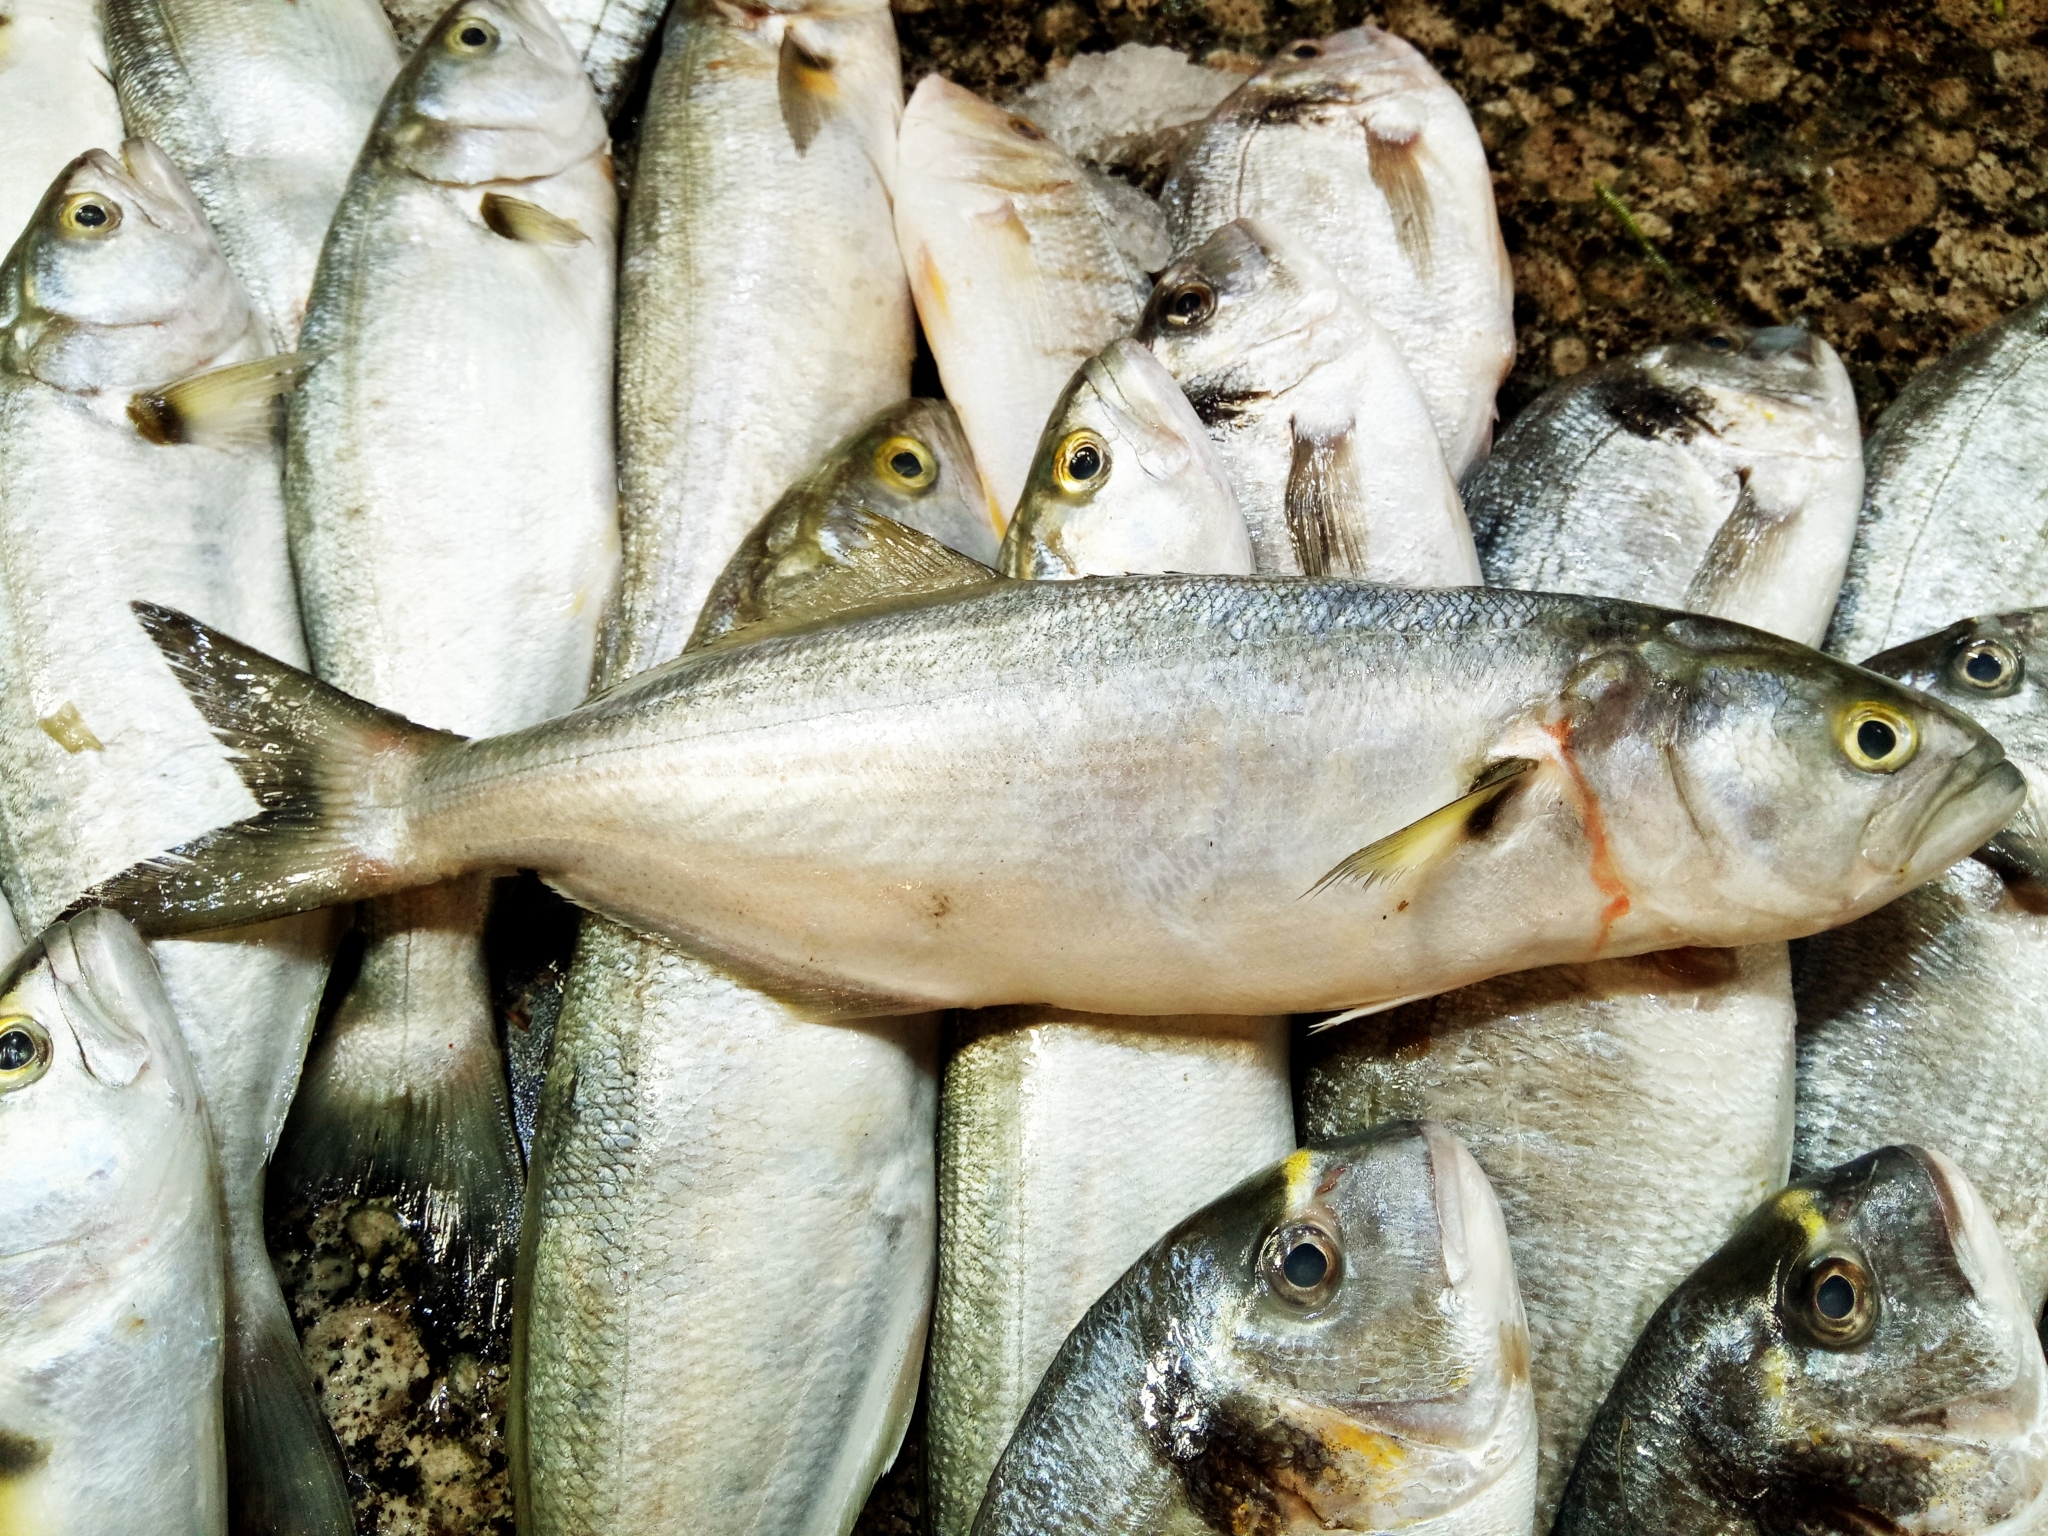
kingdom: Animalia
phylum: Chordata
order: Perciformes
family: Pomatomidae
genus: Pomatomus
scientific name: Pomatomus saltatrix
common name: Bluefish
